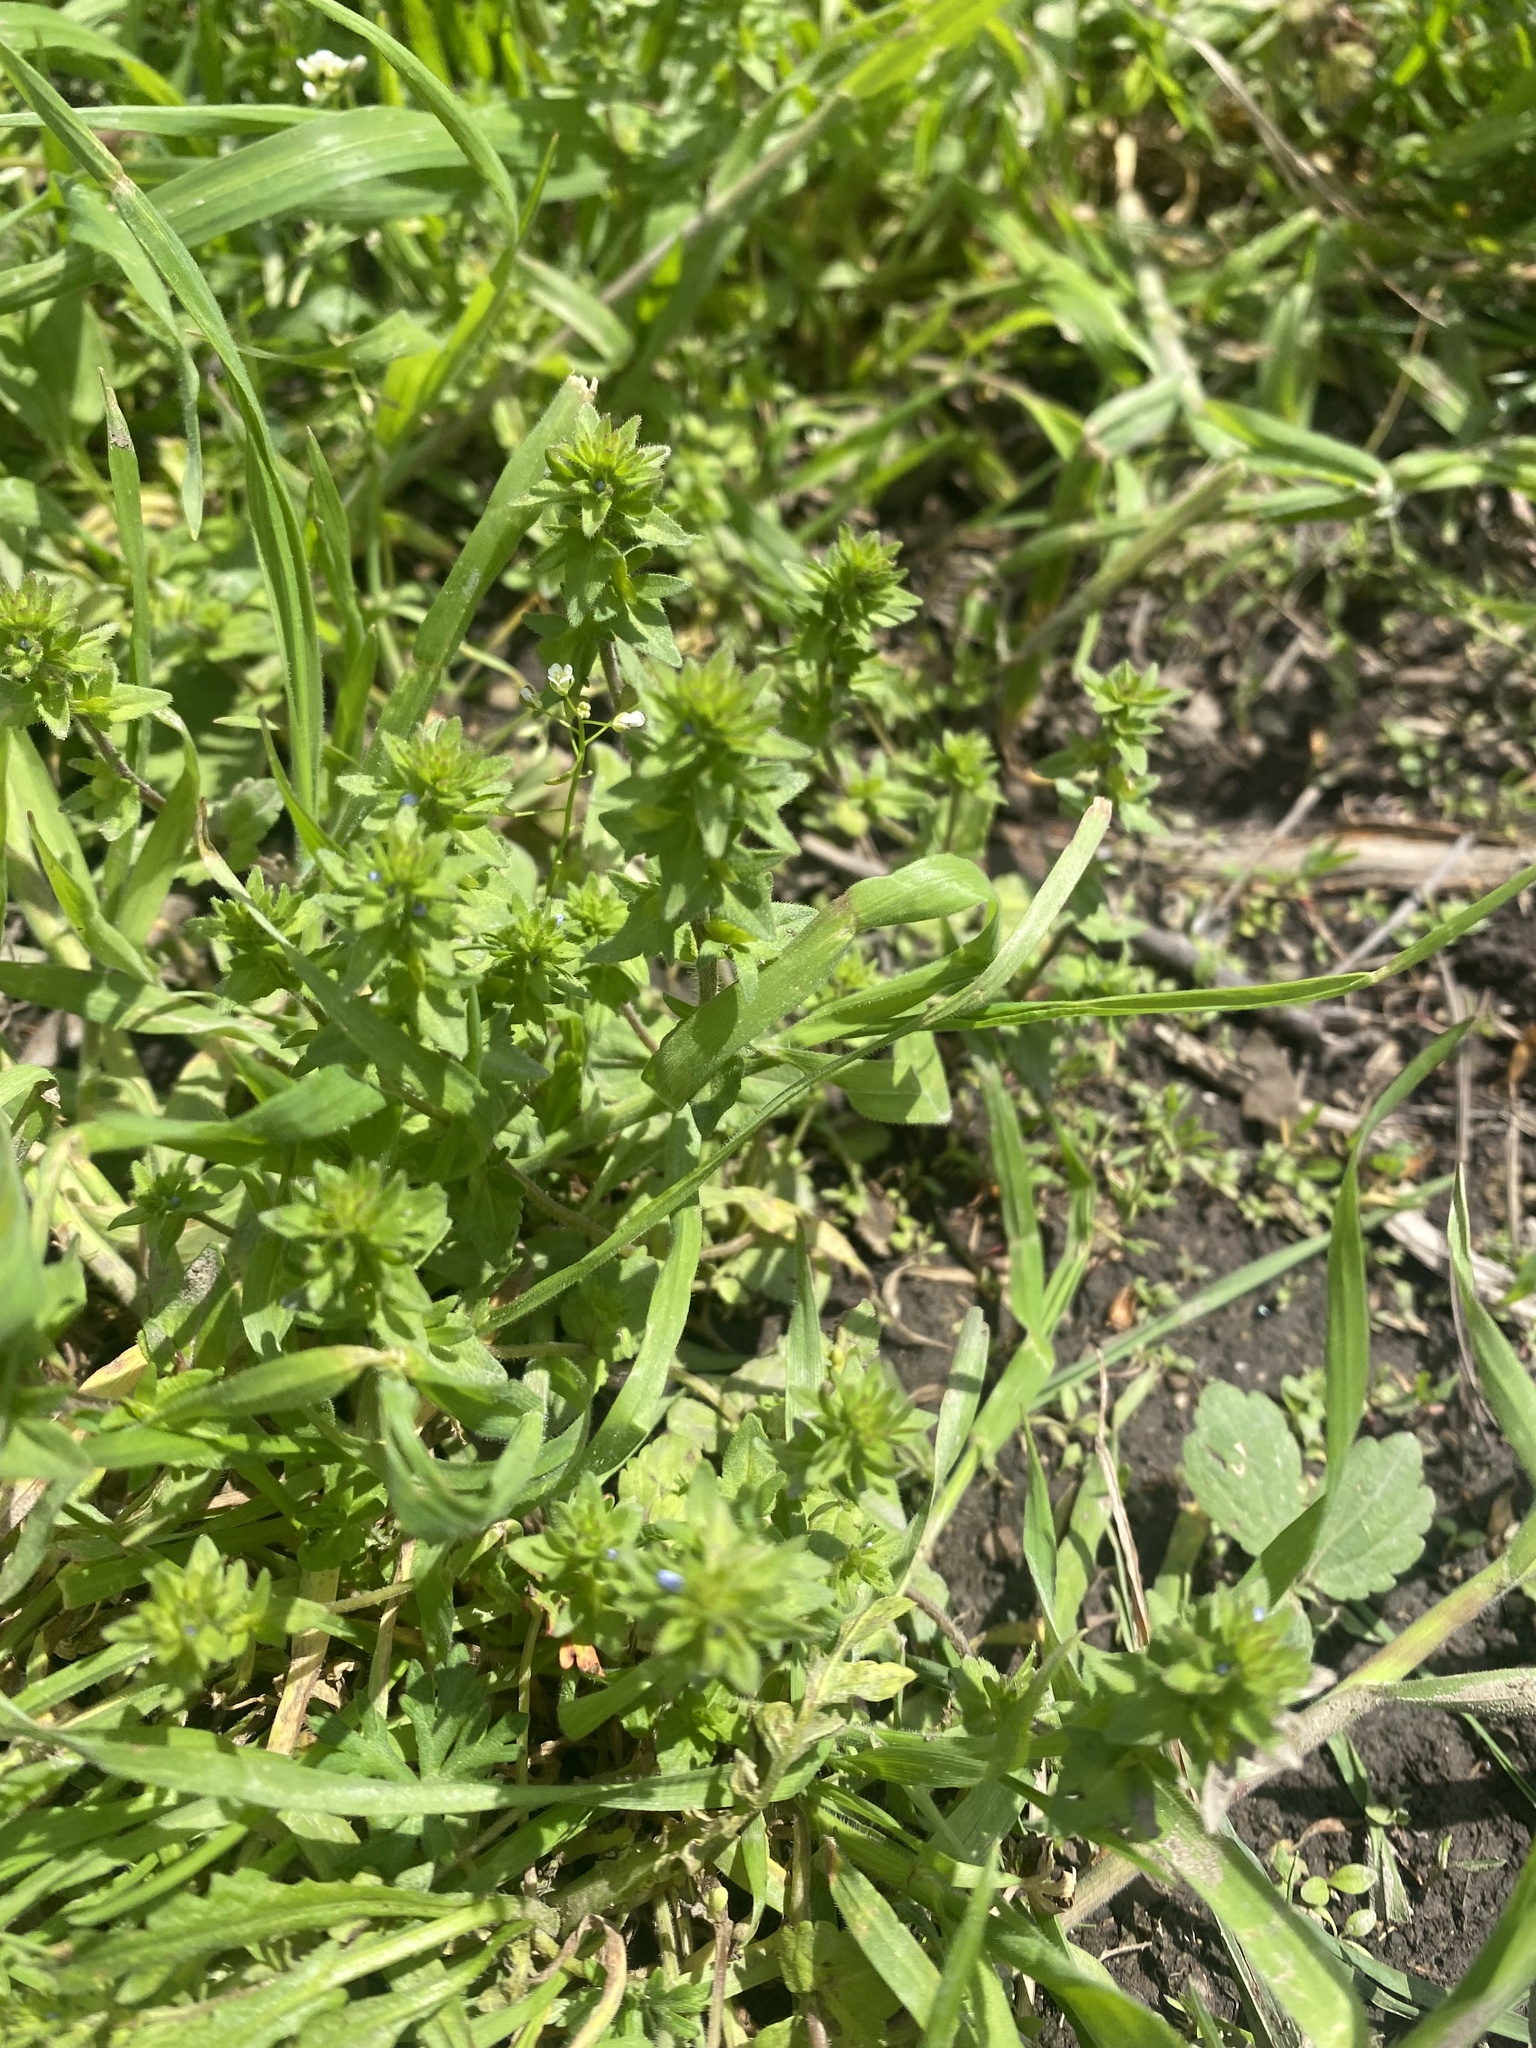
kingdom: Plantae
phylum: Tracheophyta
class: Magnoliopsida
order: Lamiales
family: Plantaginaceae
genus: Veronica
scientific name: Veronica arvensis
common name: Corn speedwell
